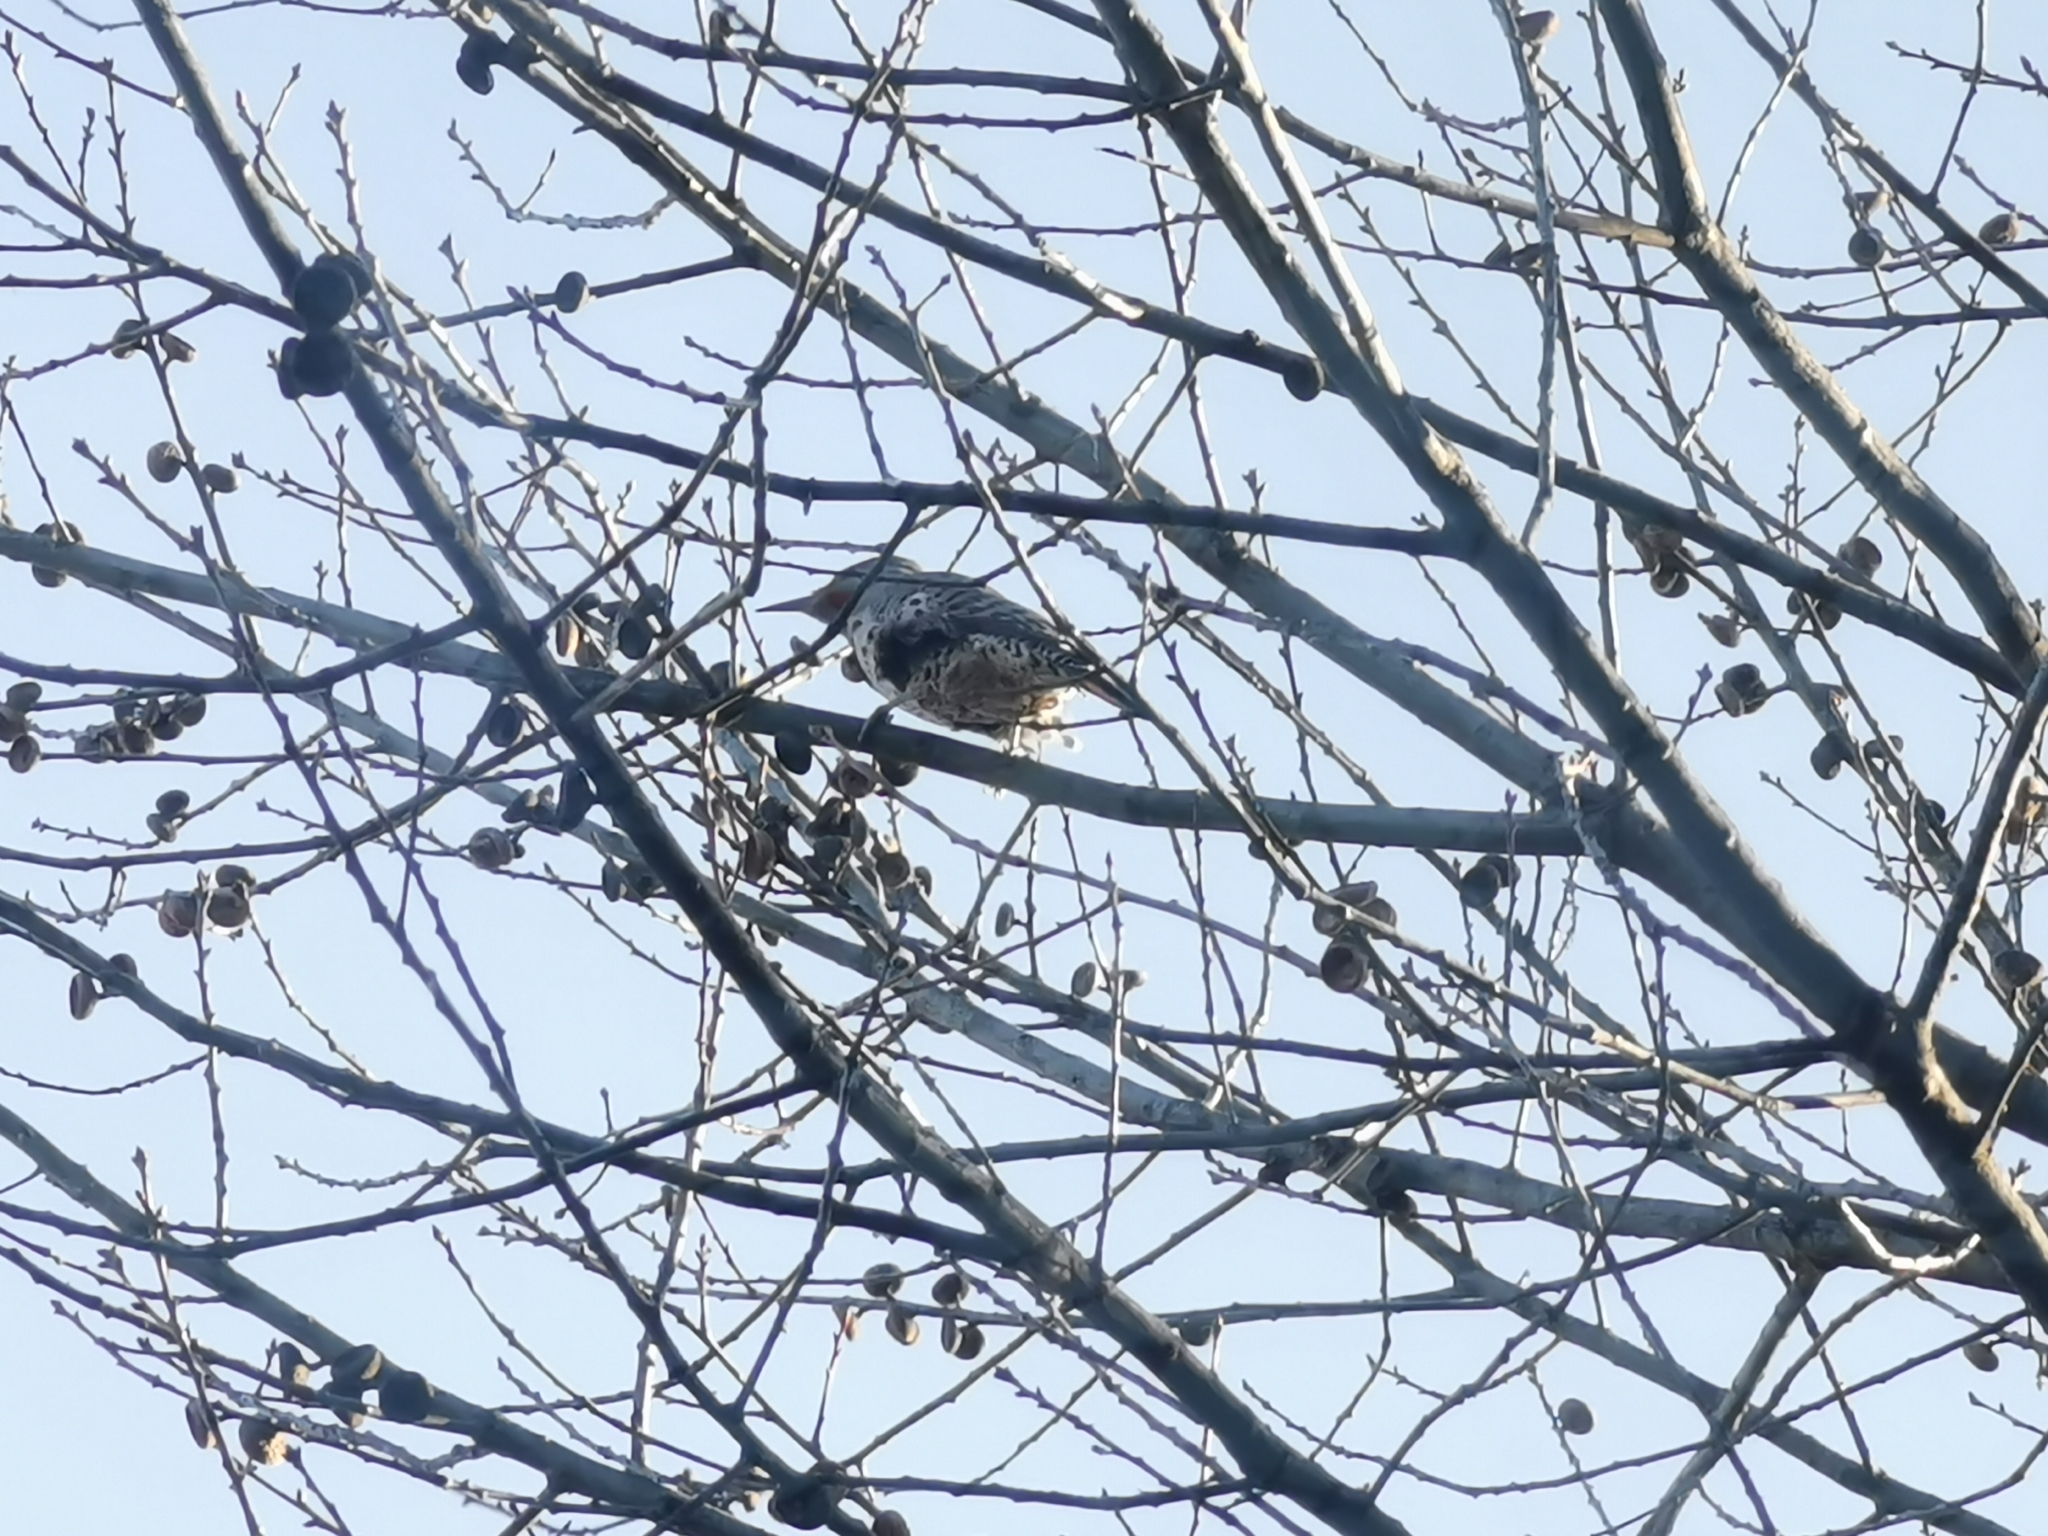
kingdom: Animalia
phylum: Chordata
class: Aves
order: Piciformes
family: Picidae
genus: Colaptes
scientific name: Colaptes auratus
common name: Northern flicker
